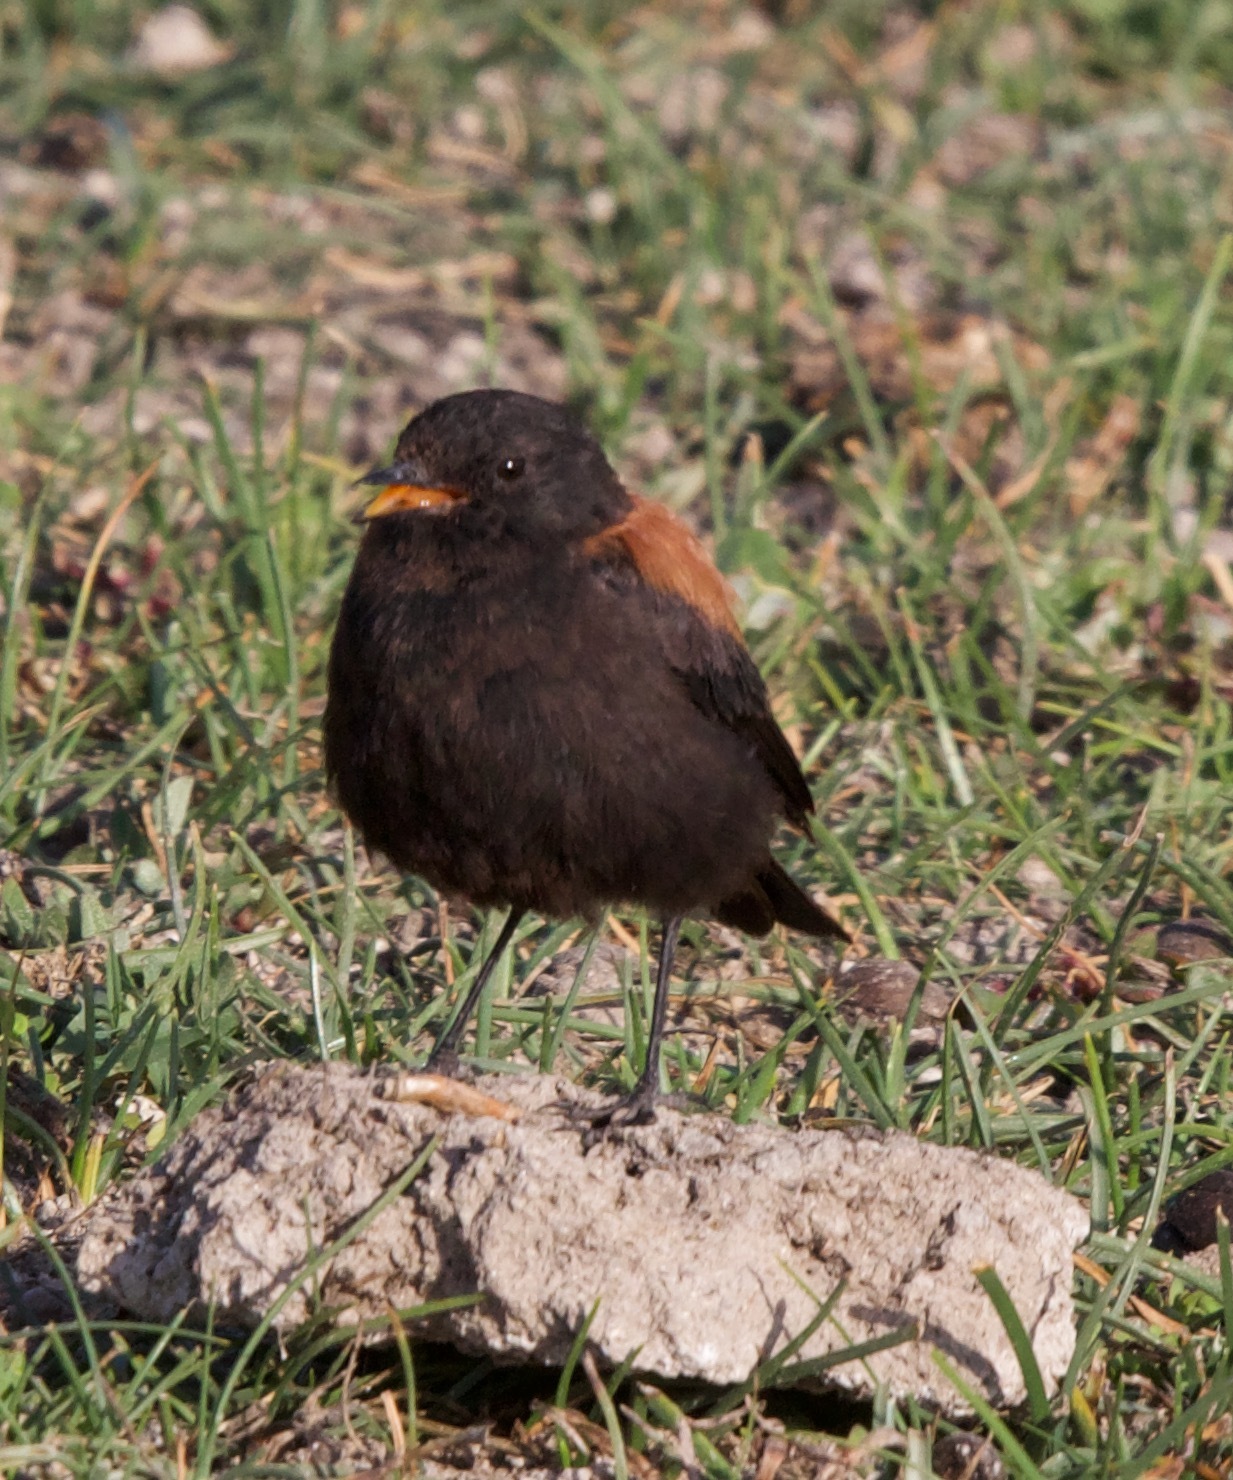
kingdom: Animalia
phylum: Chordata
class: Aves
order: Passeriformes
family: Tyrannidae
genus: Lessonia
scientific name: Lessonia rufa
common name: Austral negrito
